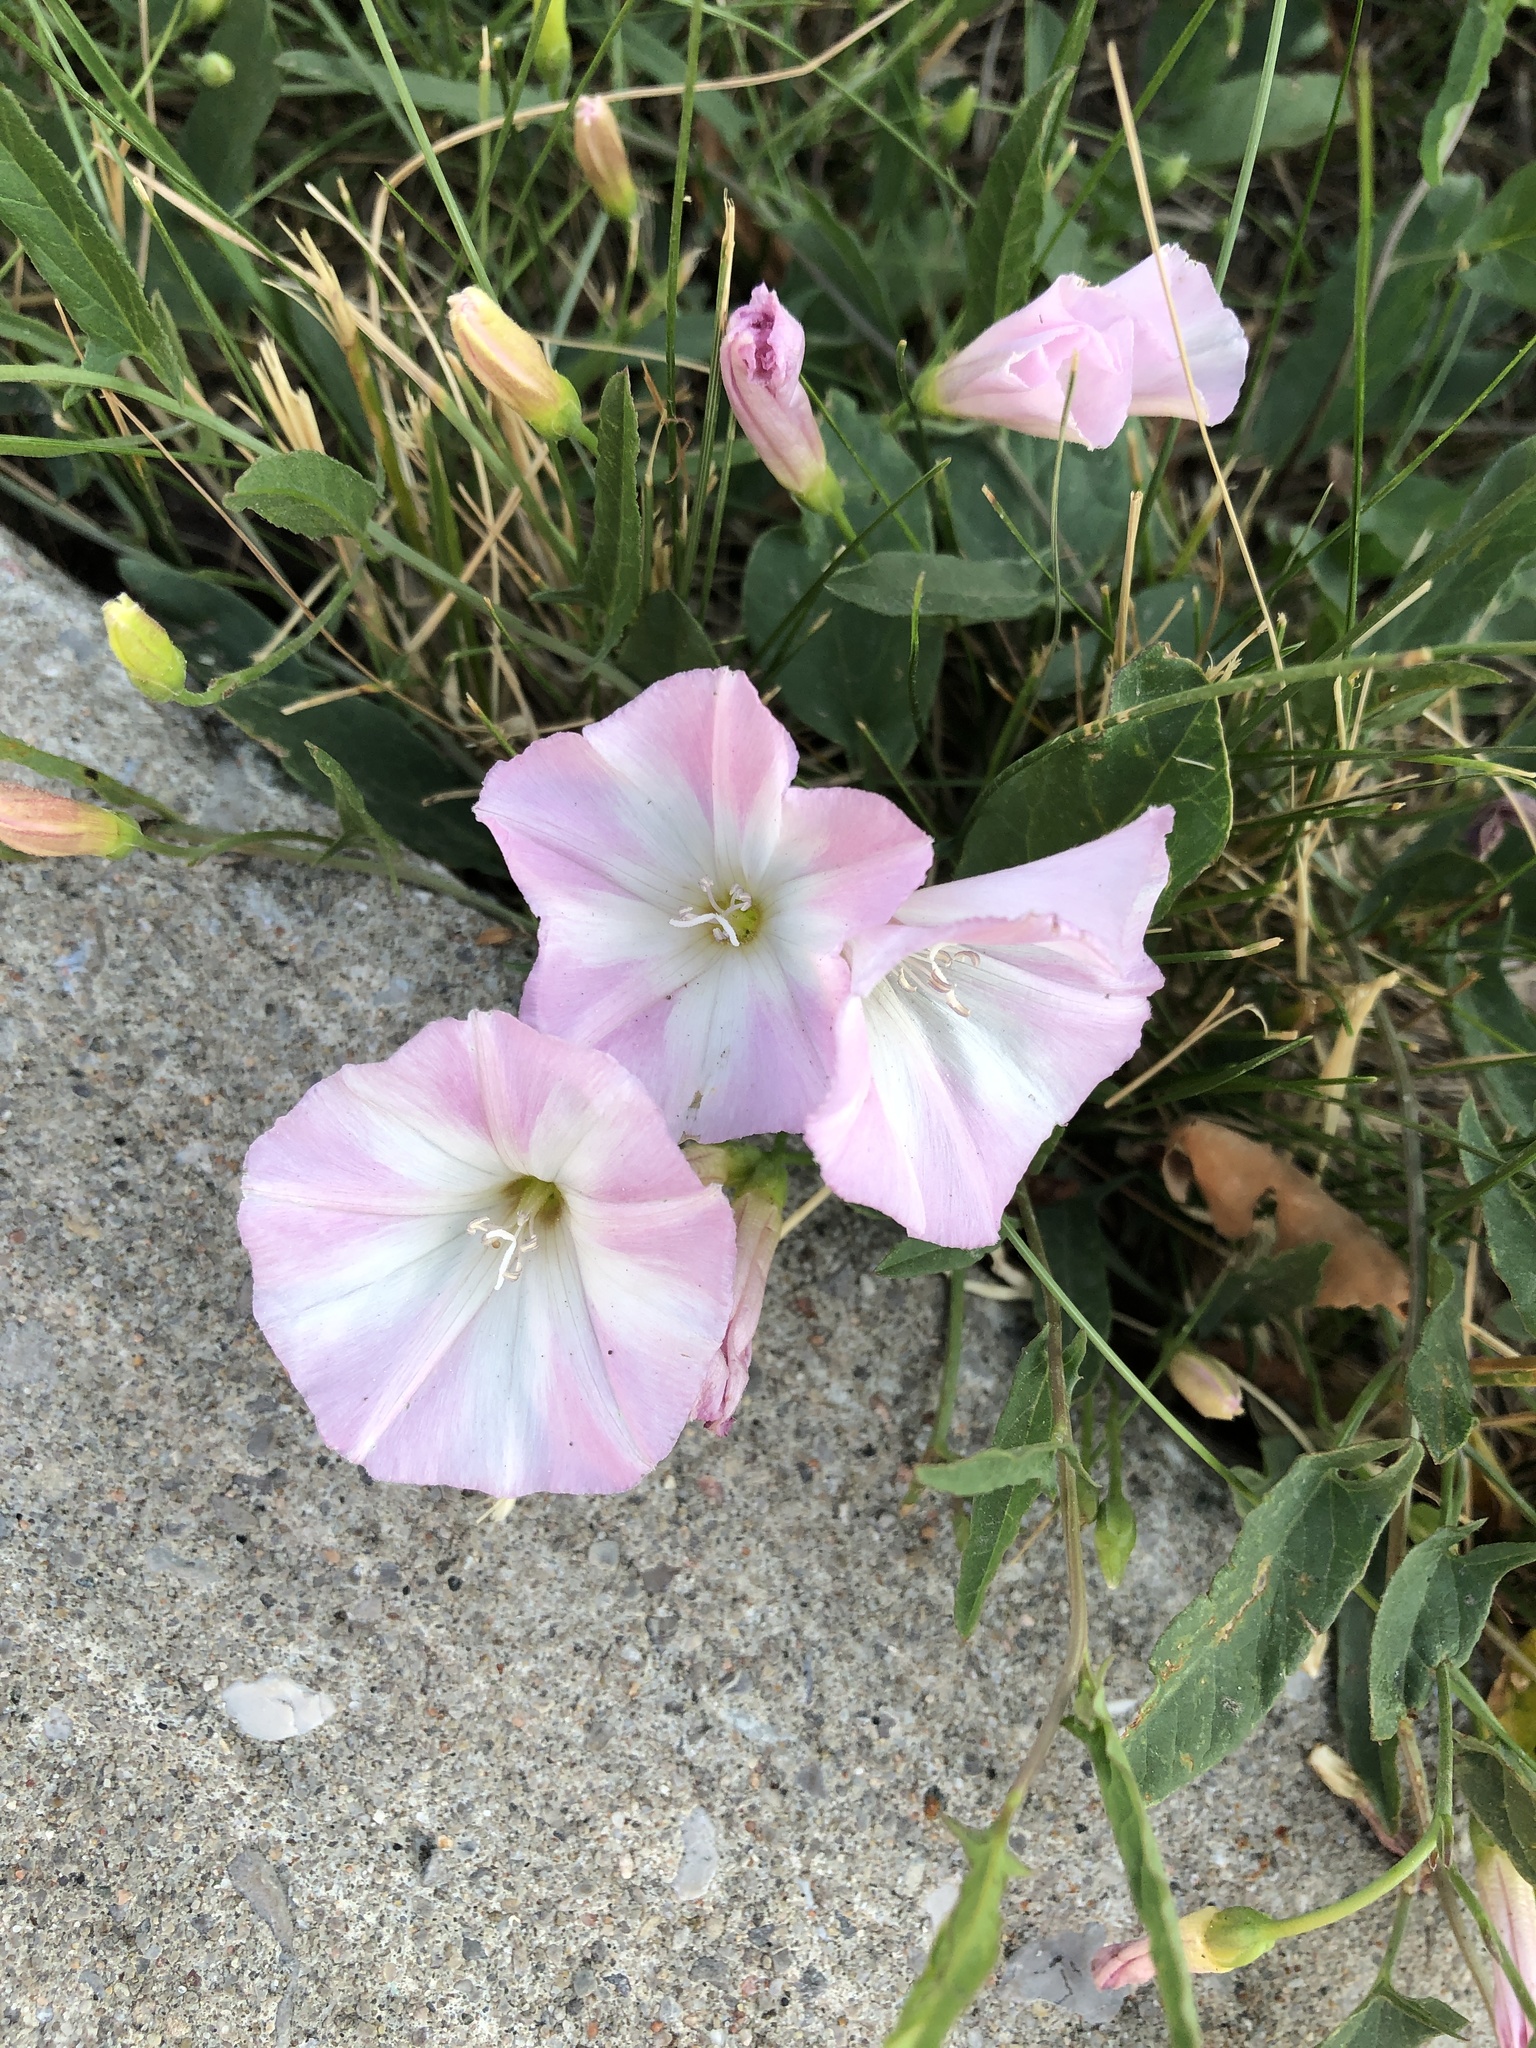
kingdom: Plantae
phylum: Tracheophyta
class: Magnoliopsida
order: Solanales
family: Convolvulaceae
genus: Convolvulus
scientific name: Convolvulus arvensis
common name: Field bindweed
